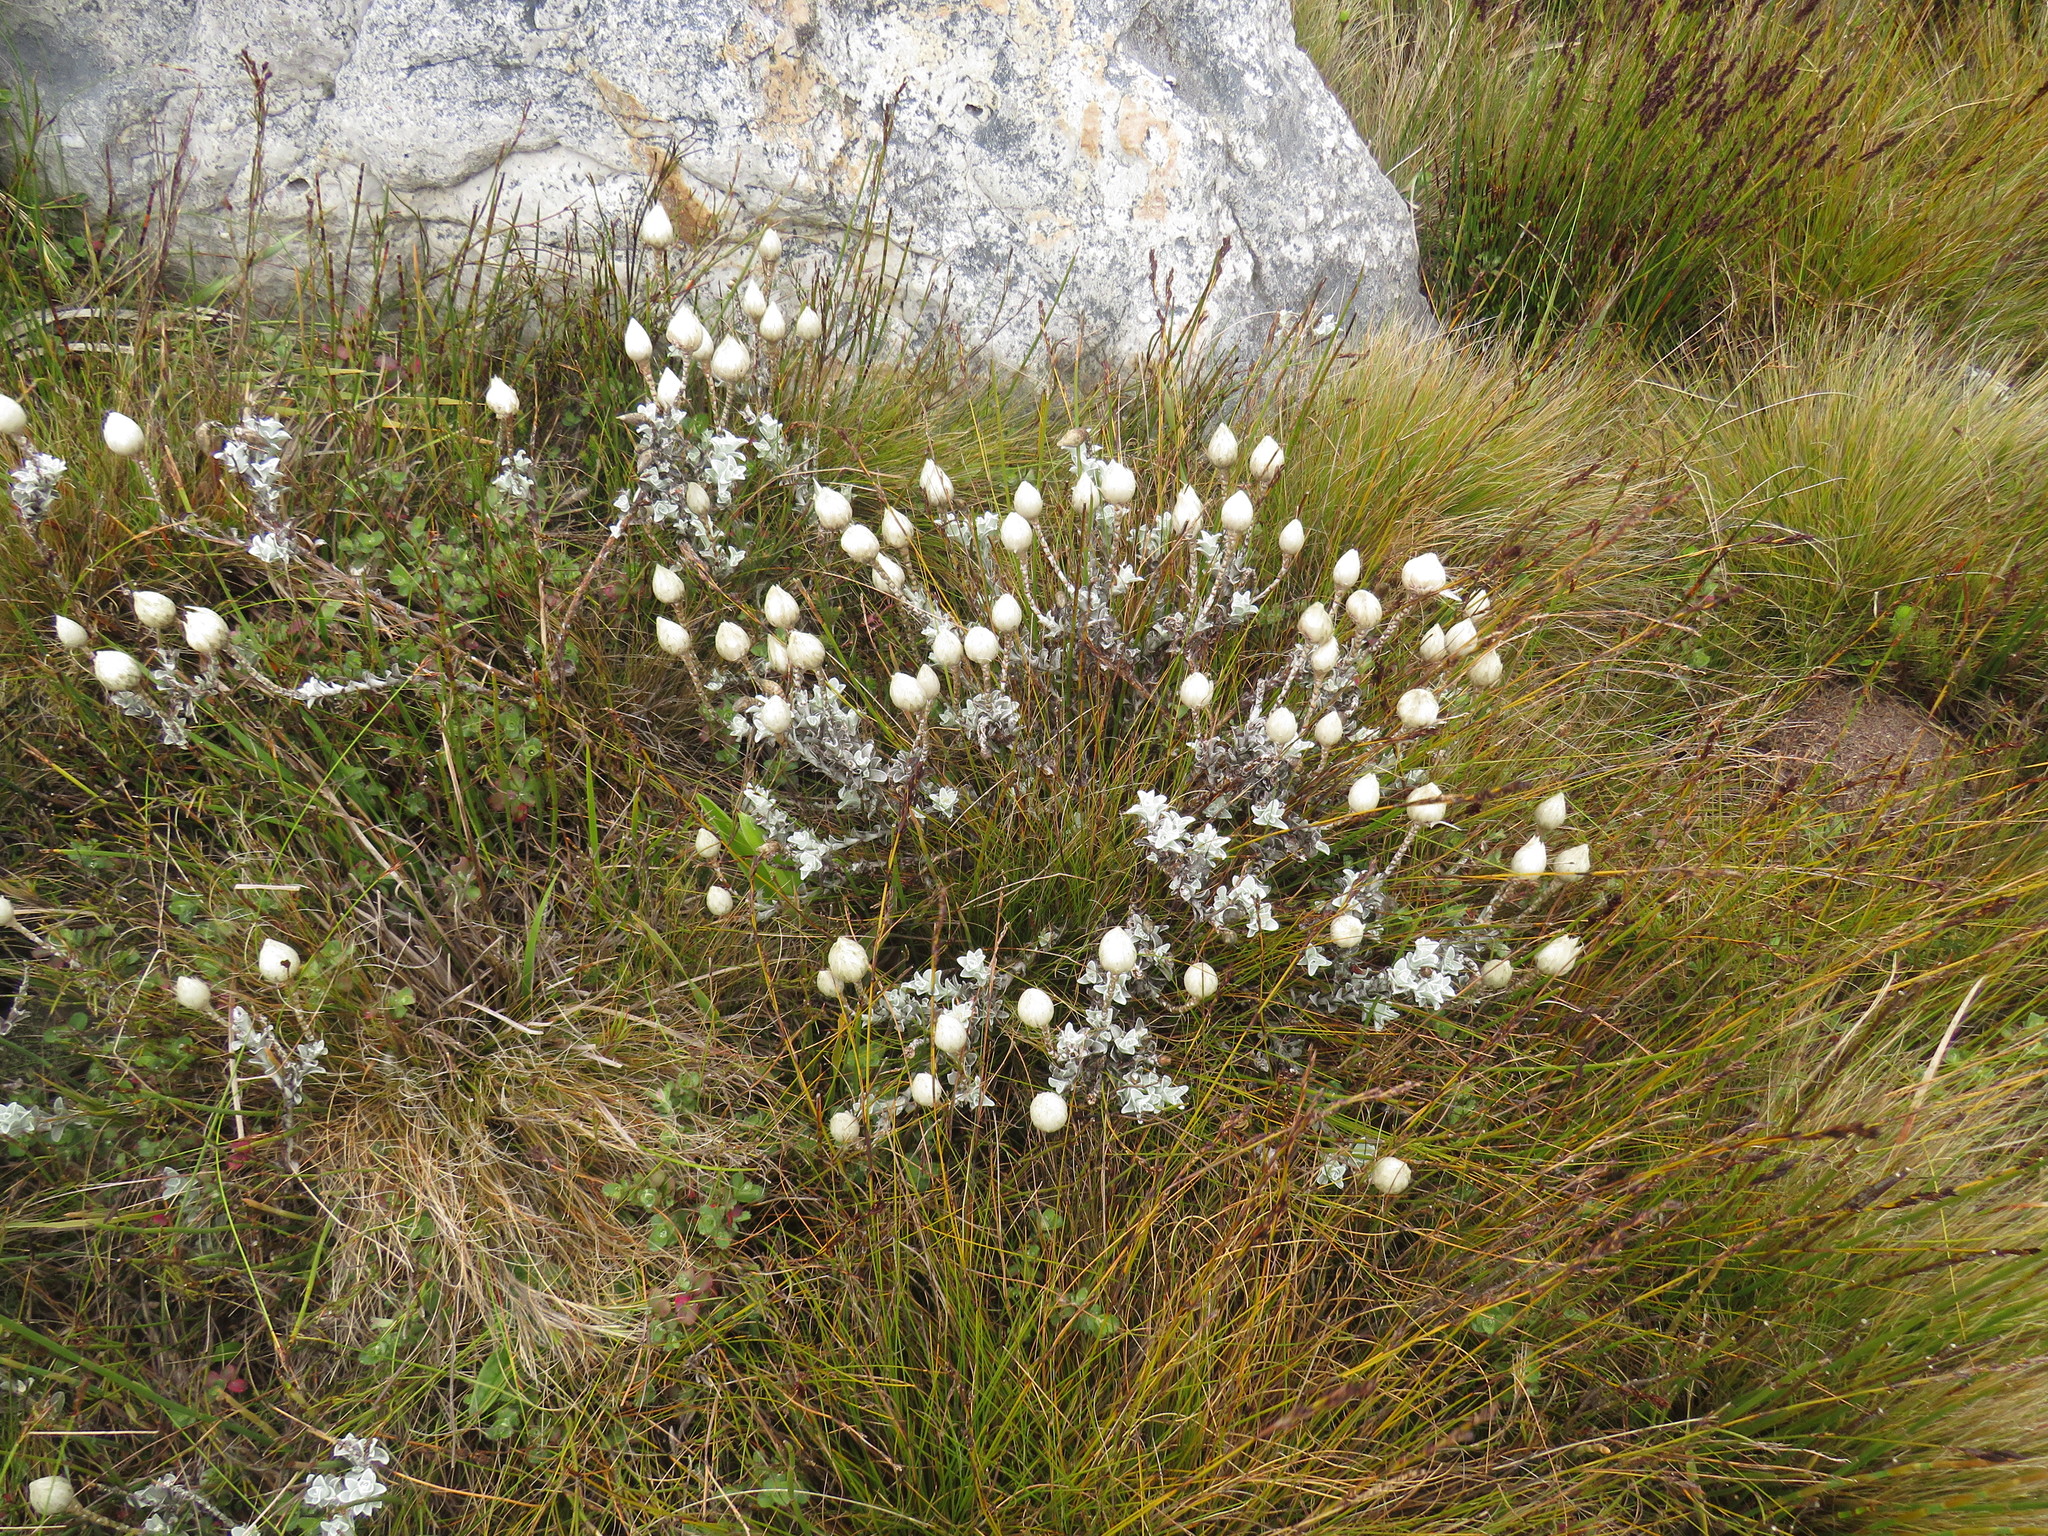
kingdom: Plantae
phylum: Tracheophyta
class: Magnoliopsida
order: Asterales
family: Asteraceae
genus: Syncarpha
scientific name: Syncarpha lepidopodium
